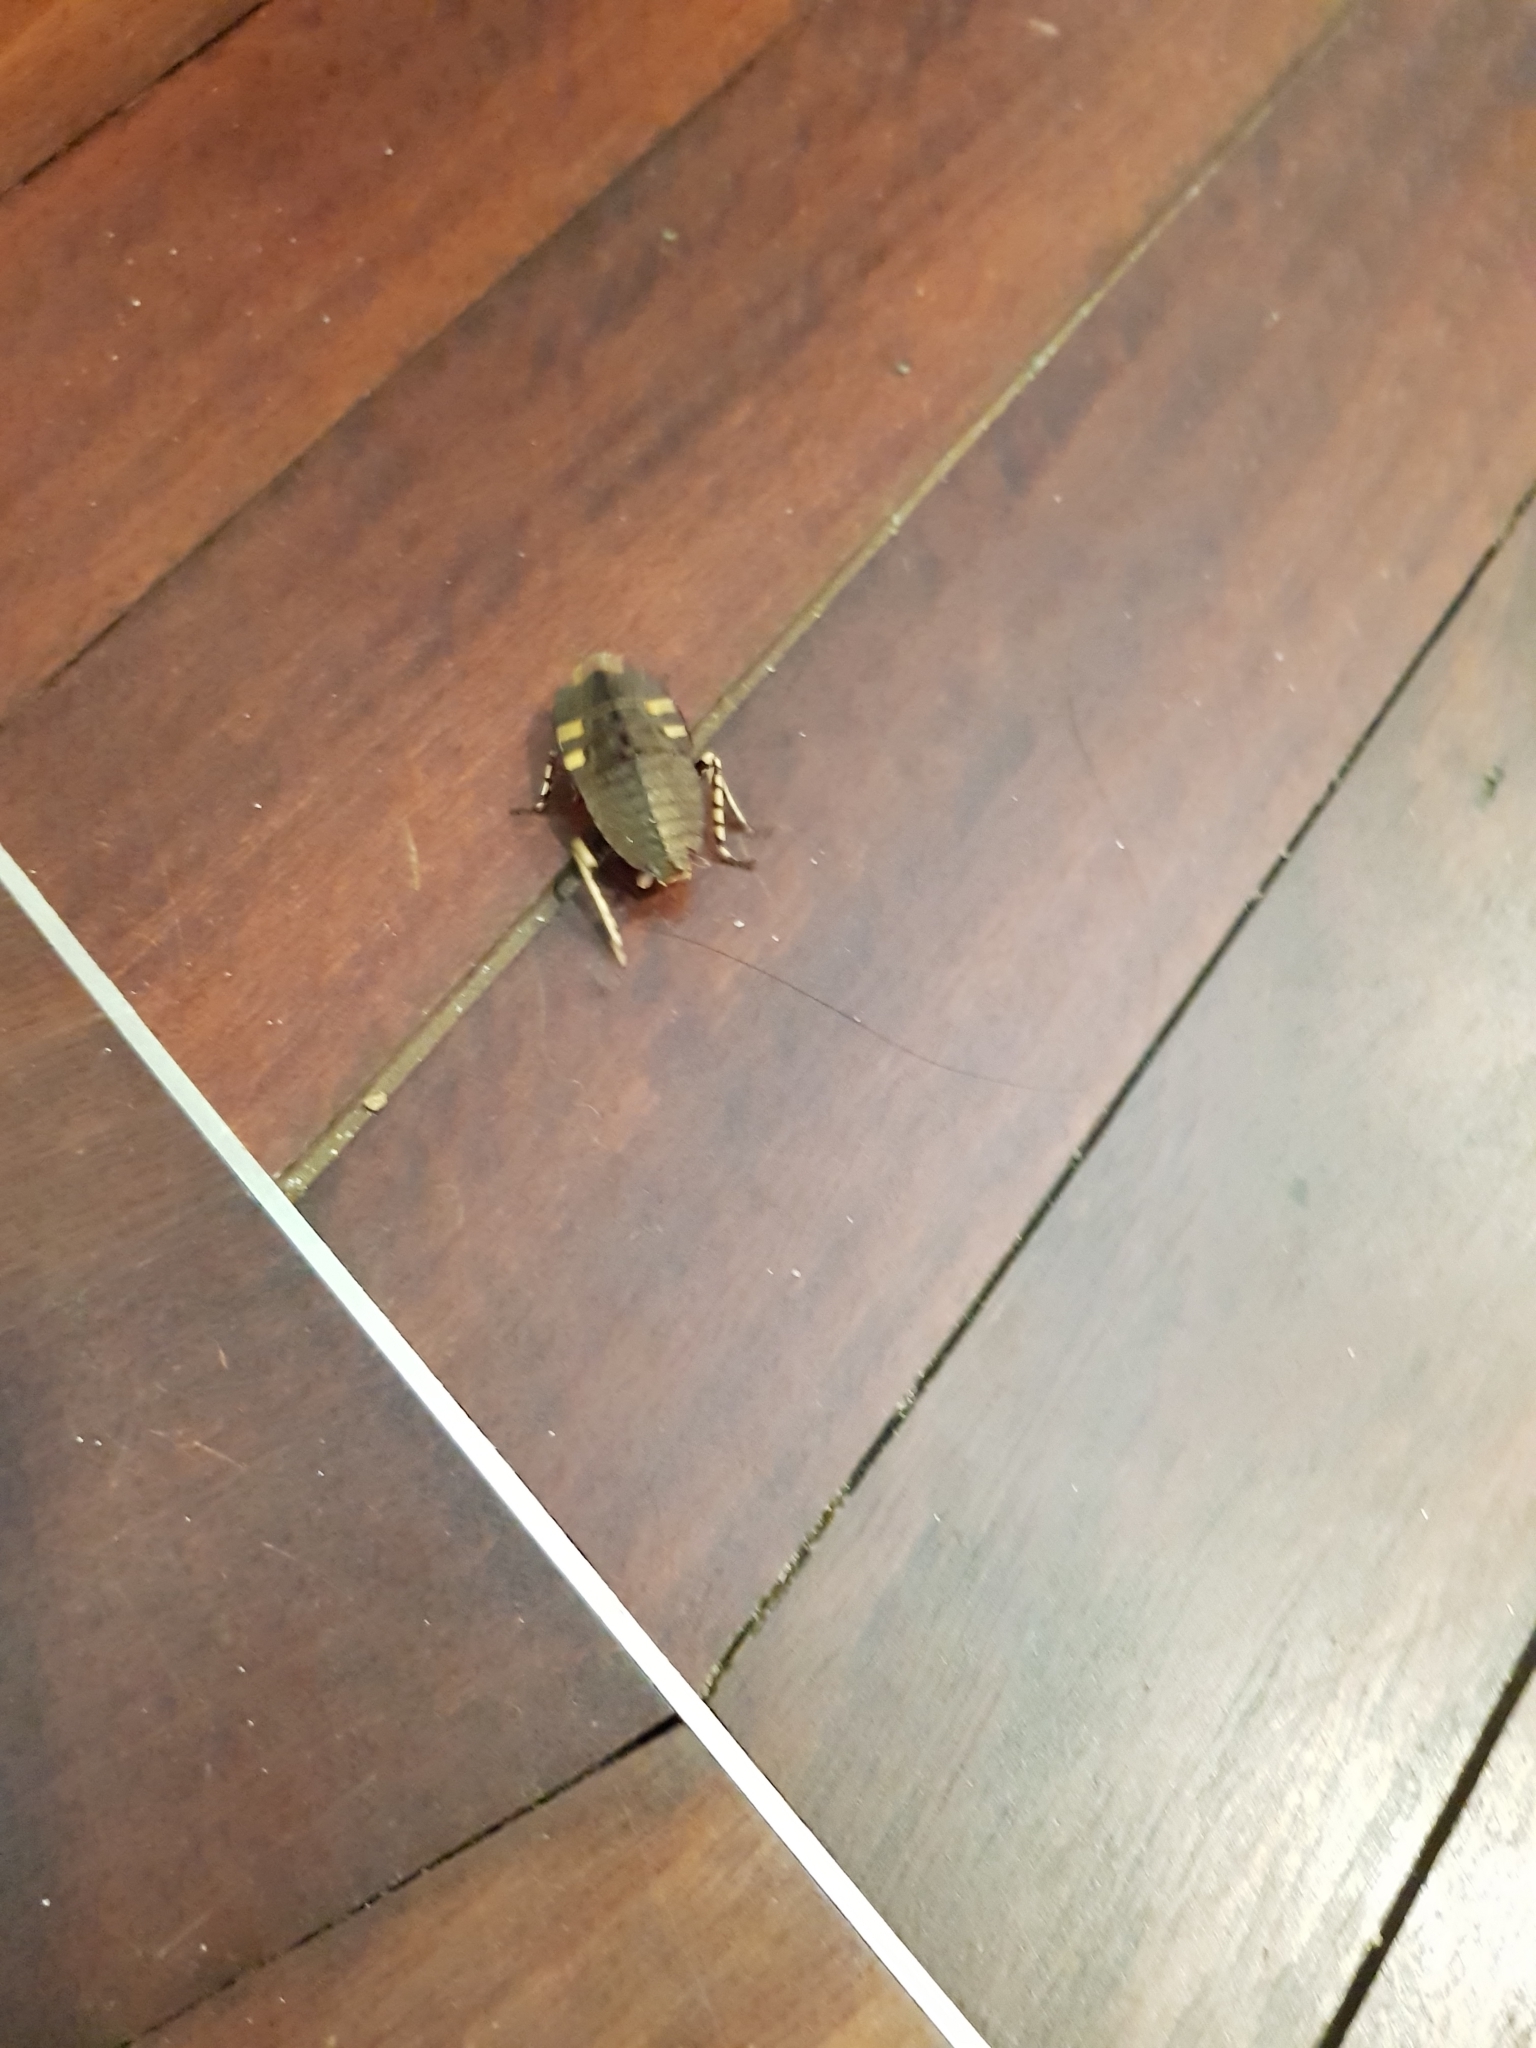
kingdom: Animalia
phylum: Arthropoda
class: Insecta
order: Blattodea
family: Blattidae
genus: Polyzosteria
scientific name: Polyzosteria cuprea
